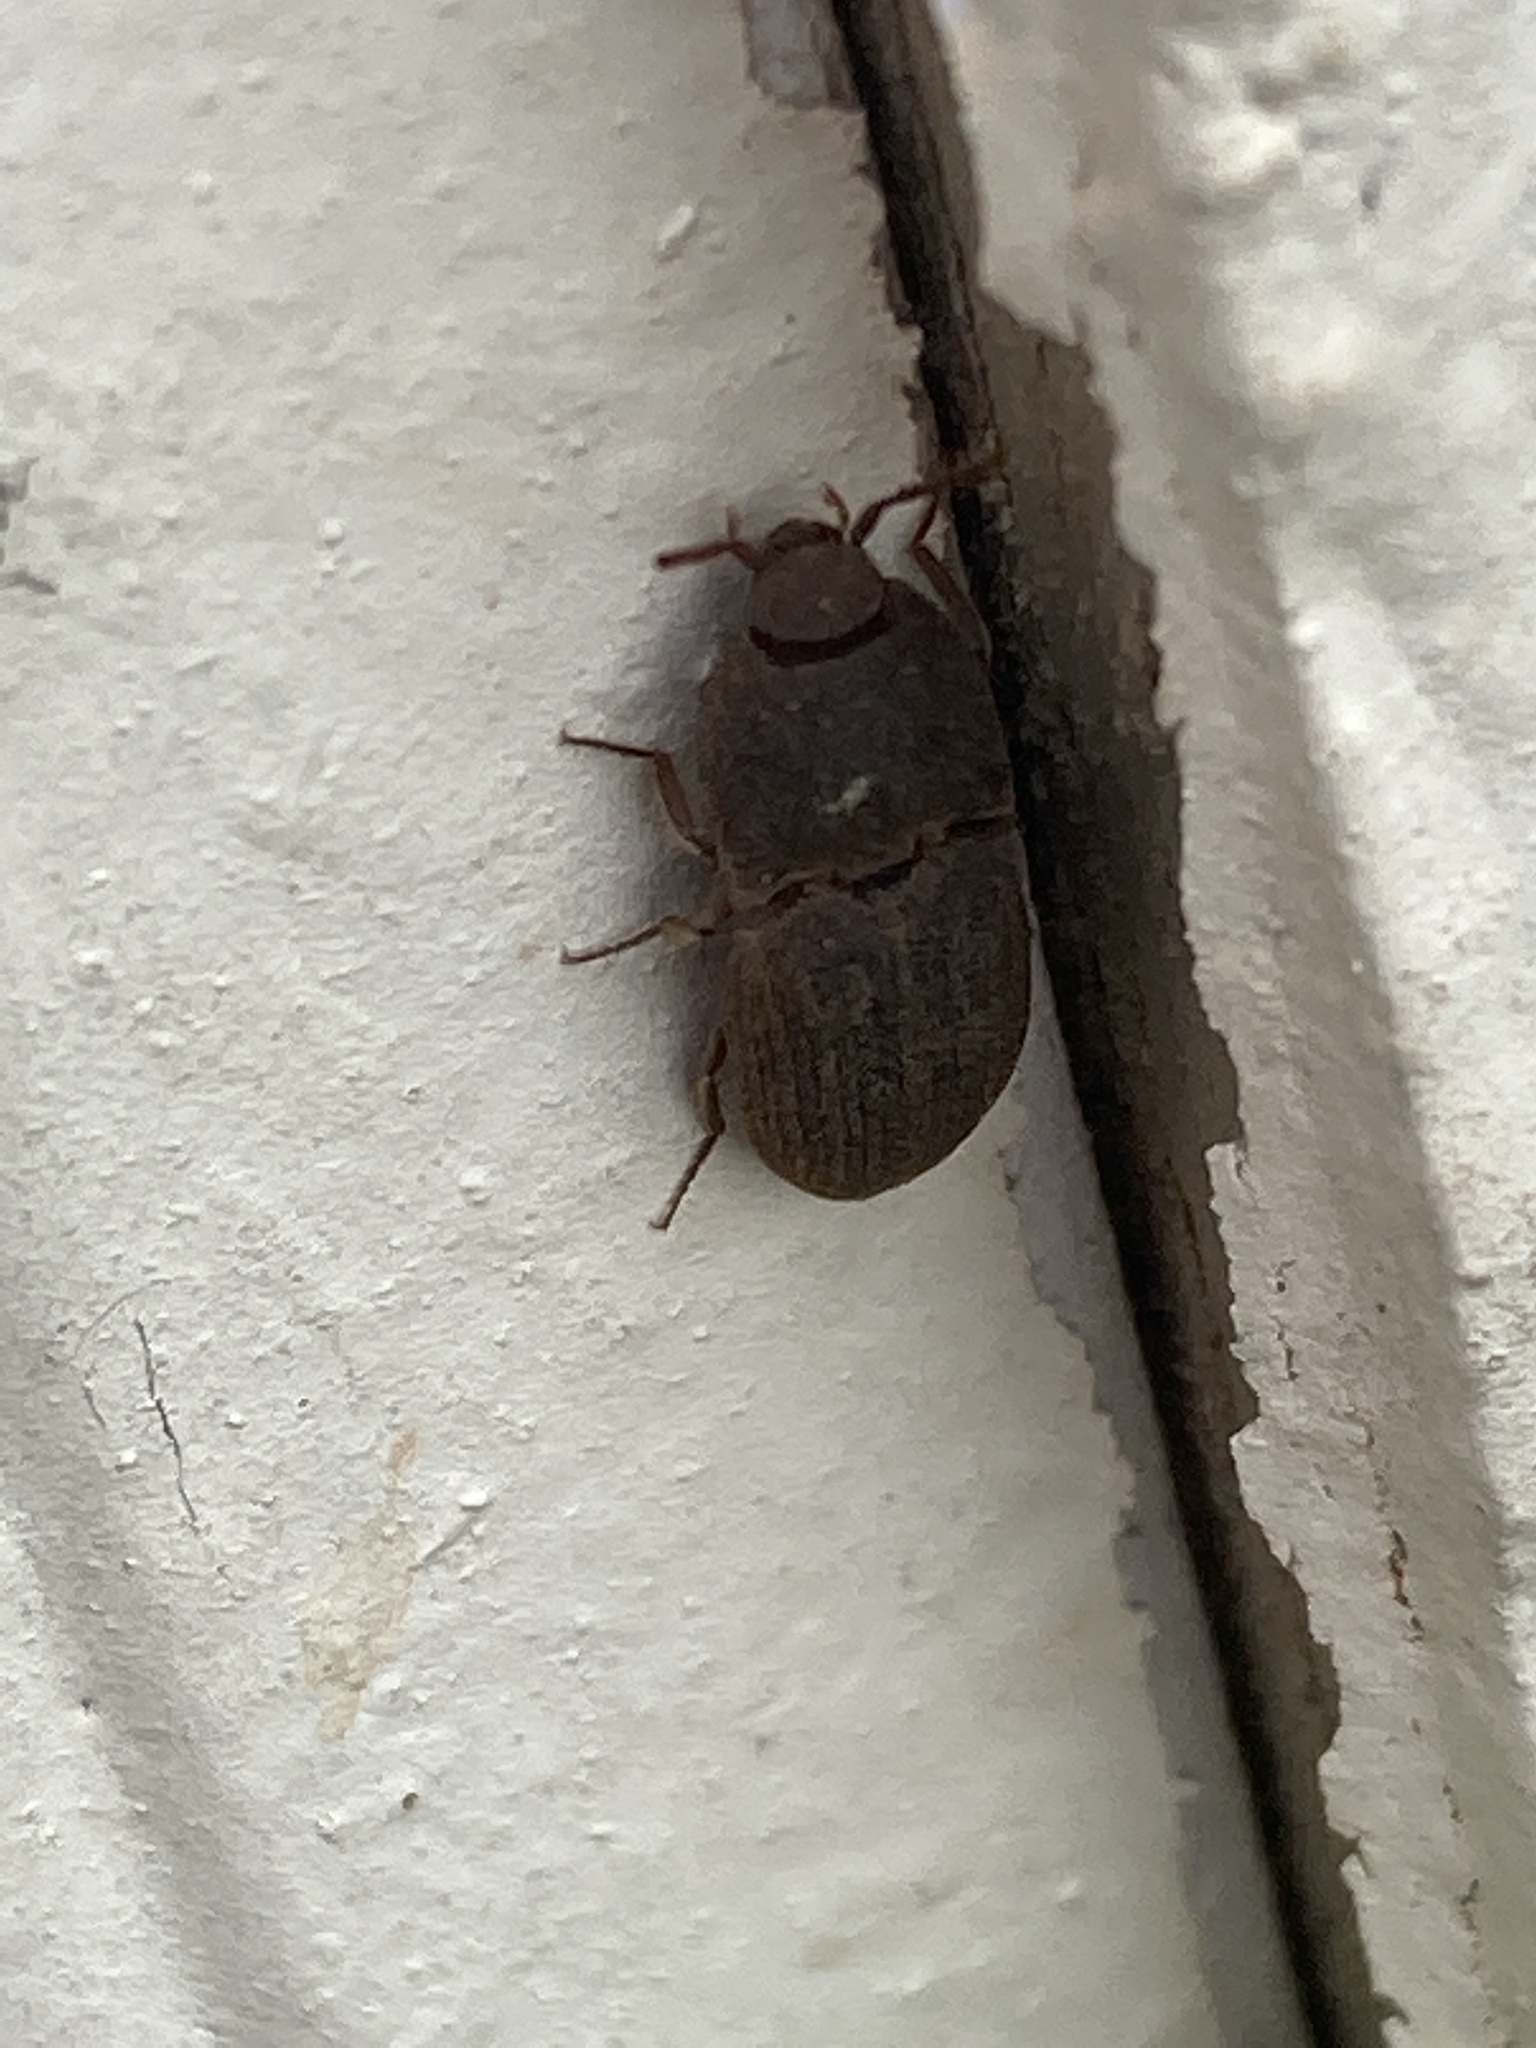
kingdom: Animalia
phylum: Arthropoda
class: Insecta
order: Coleoptera
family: Elateridae
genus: Agrypnus
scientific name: Agrypnus rectangularis
